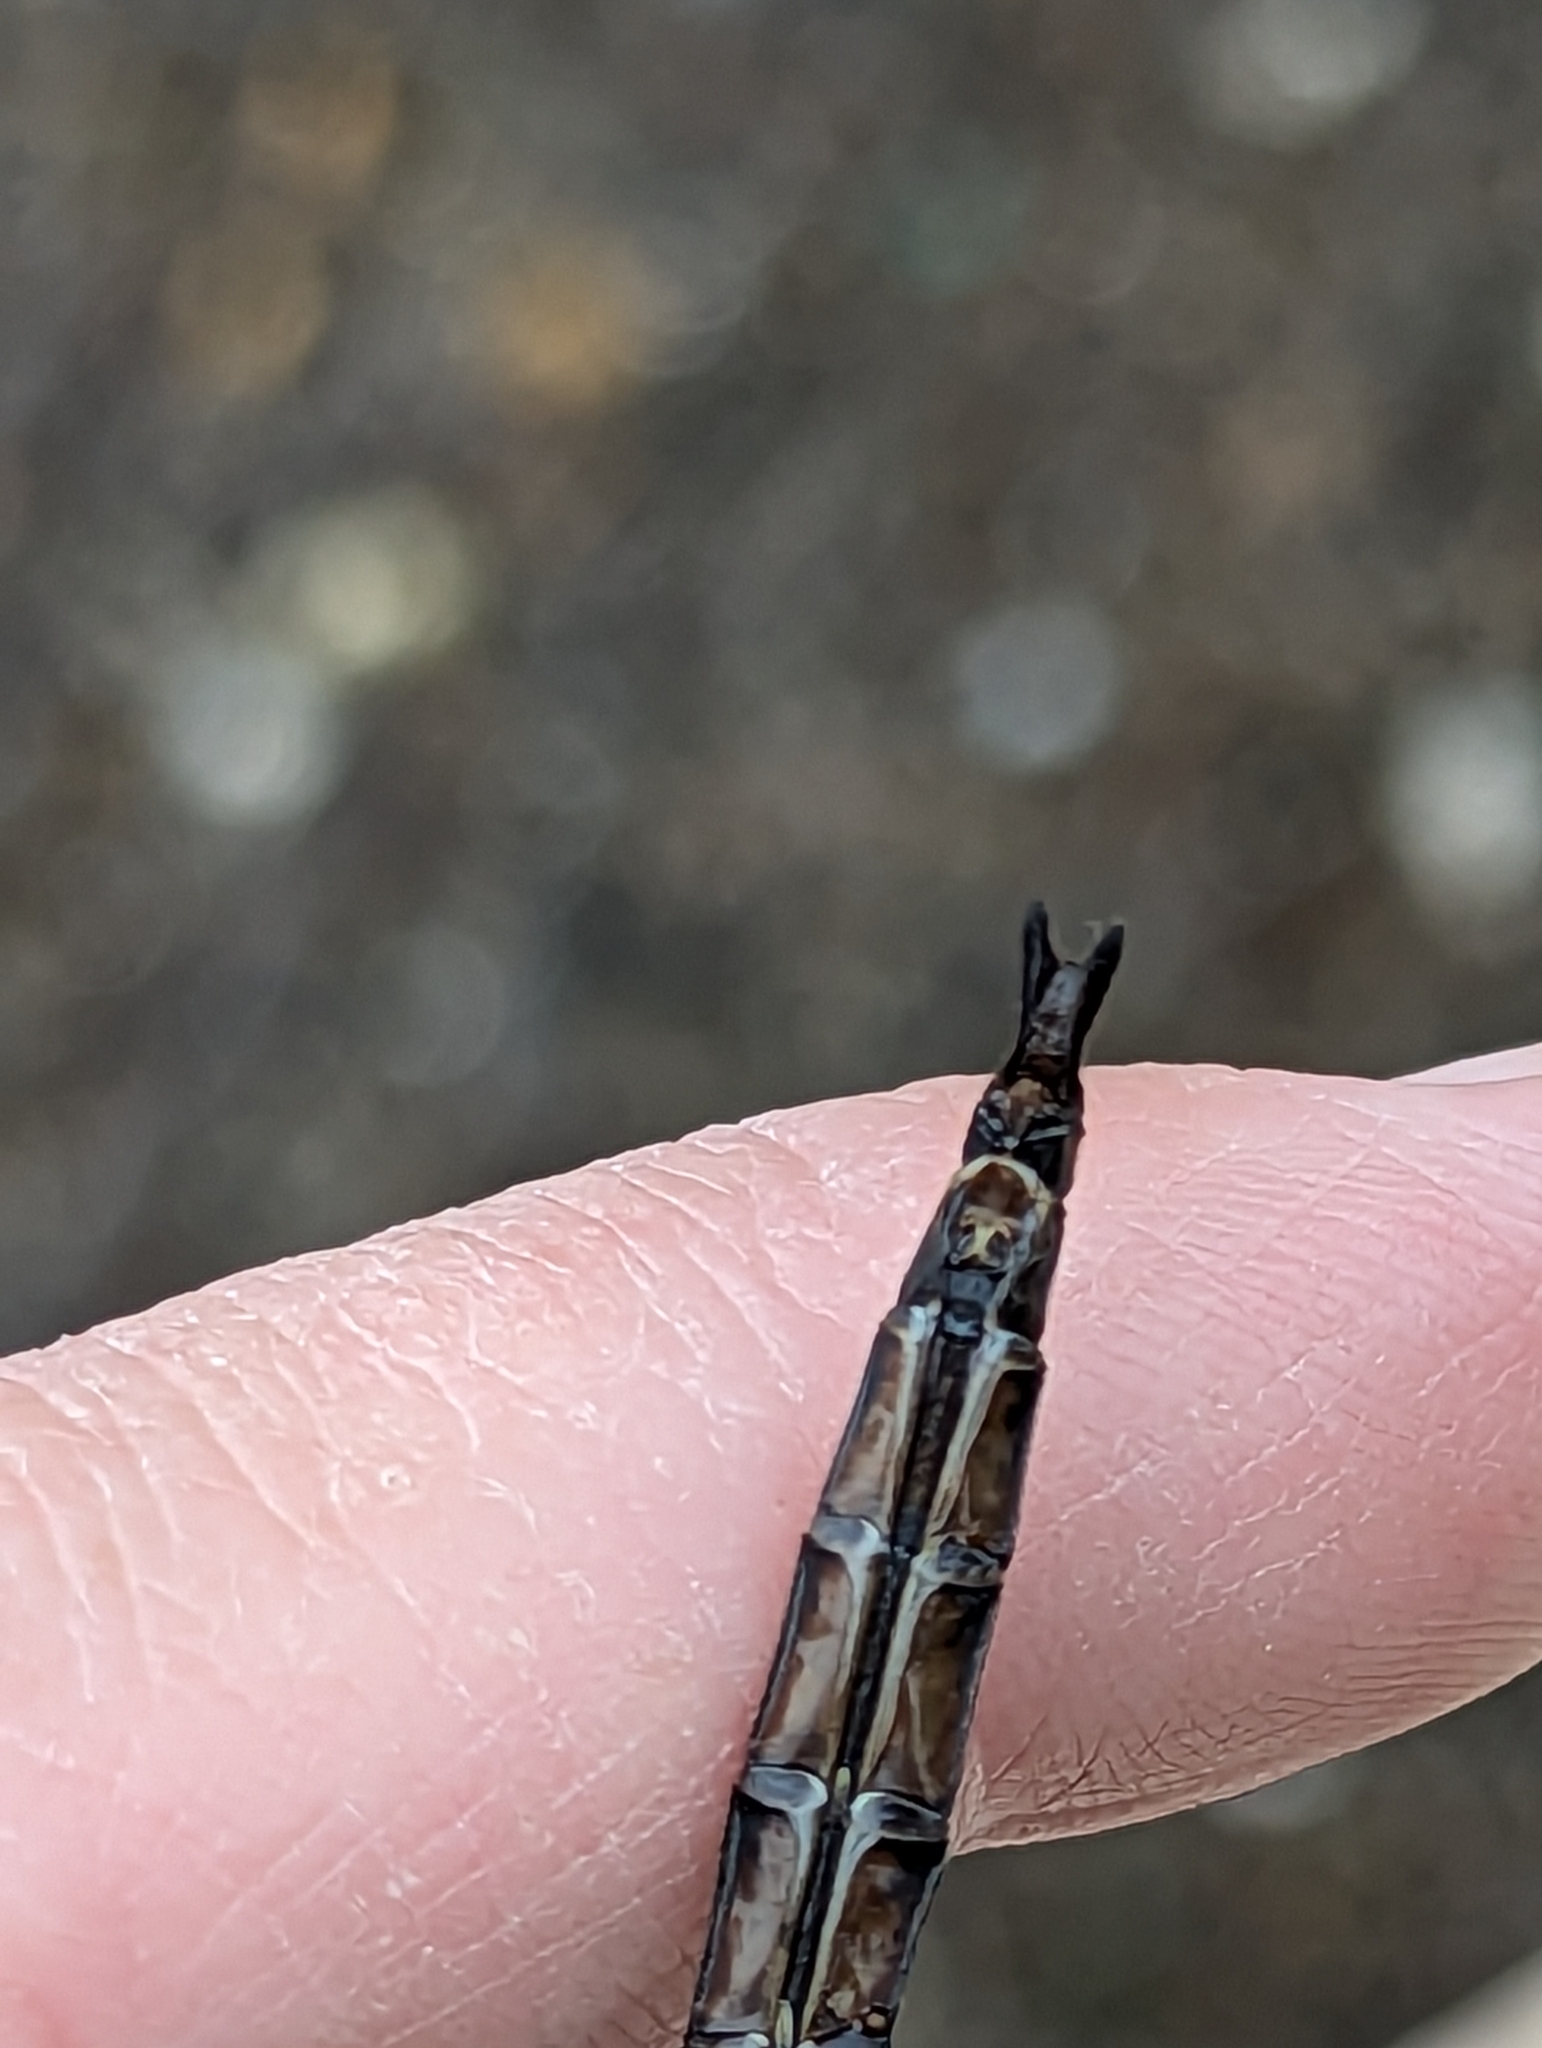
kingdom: Animalia
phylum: Arthropoda
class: Insecta
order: Odonata
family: Corduliidae
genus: Epitheca
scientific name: Epitheca princeps
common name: Prince baskettail
